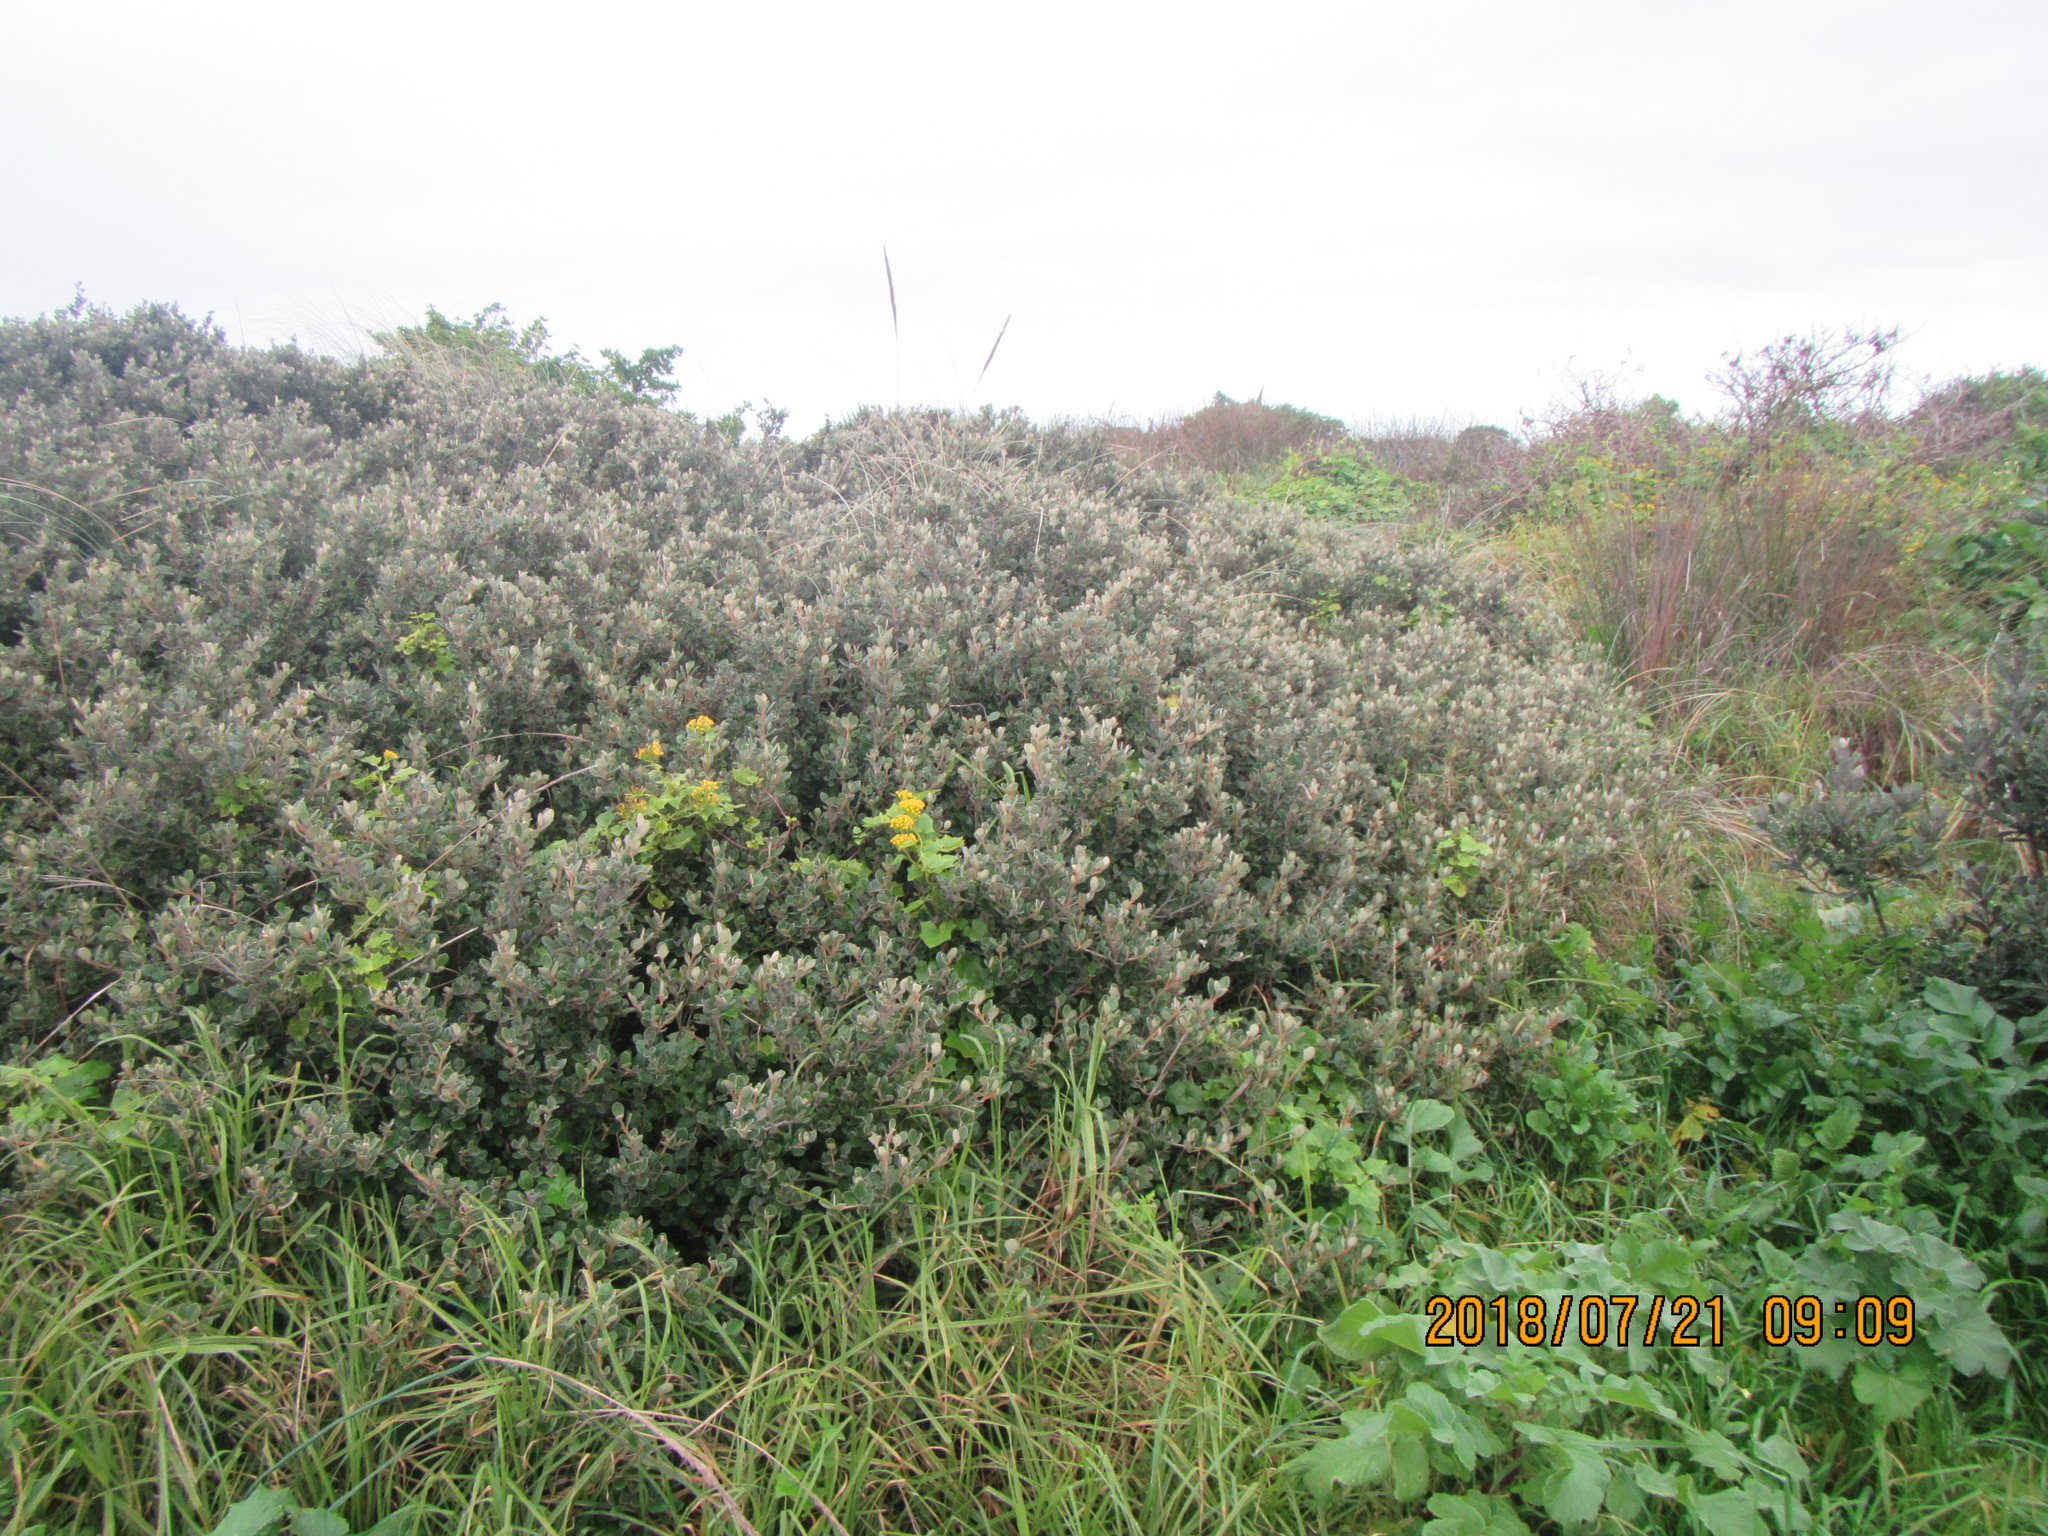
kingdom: Plantae
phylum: Tracheophyta
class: Magnoliopsida
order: Asterales
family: Asteraceae
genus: Delairea
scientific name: Delairea odorata
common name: Cape-ivy
